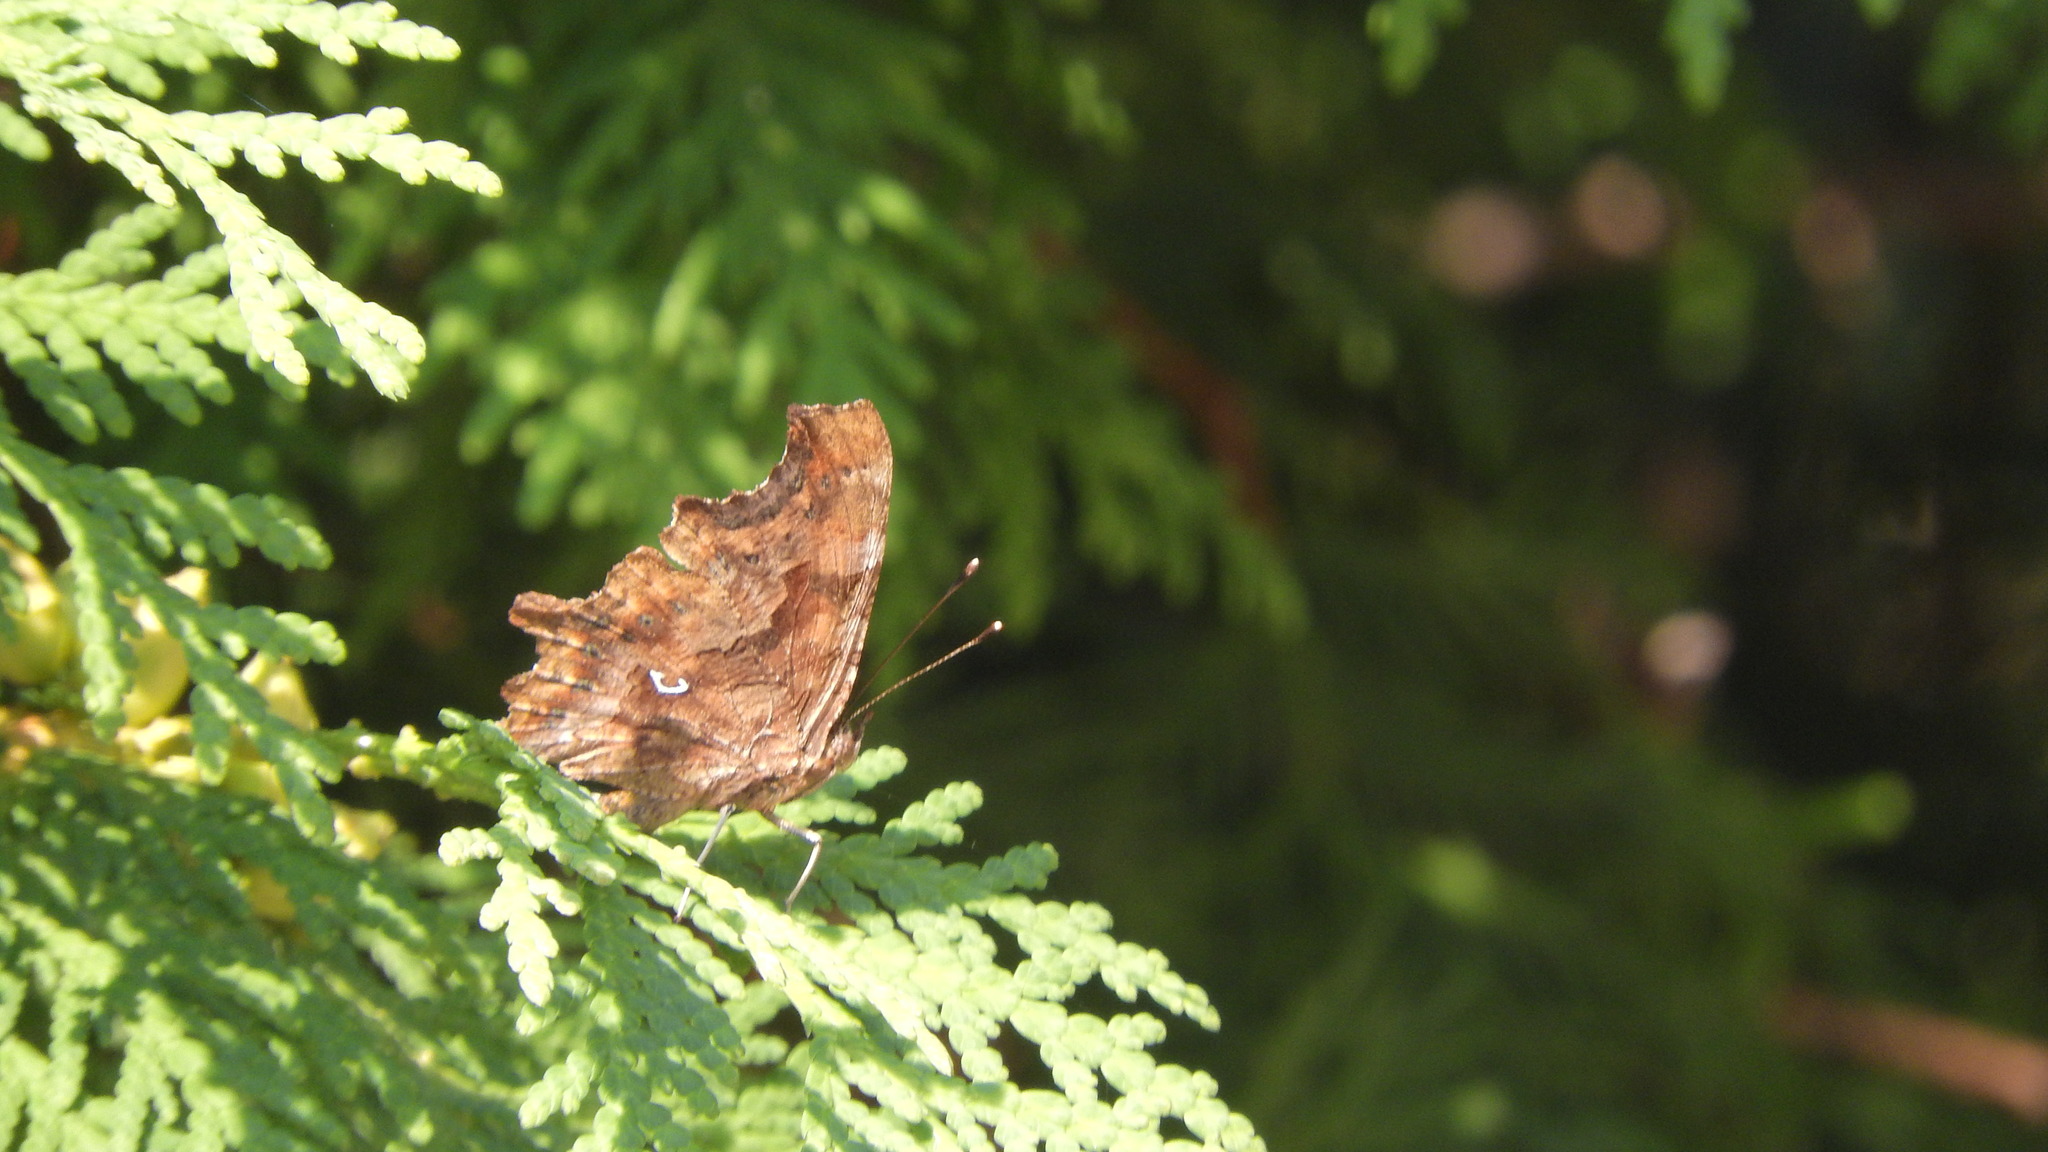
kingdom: Animalia
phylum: Arthropoda
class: Insecta
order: Lepidoptera
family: Nymphalidae
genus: Polygonia
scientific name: Polygonia c-album
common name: Comma
